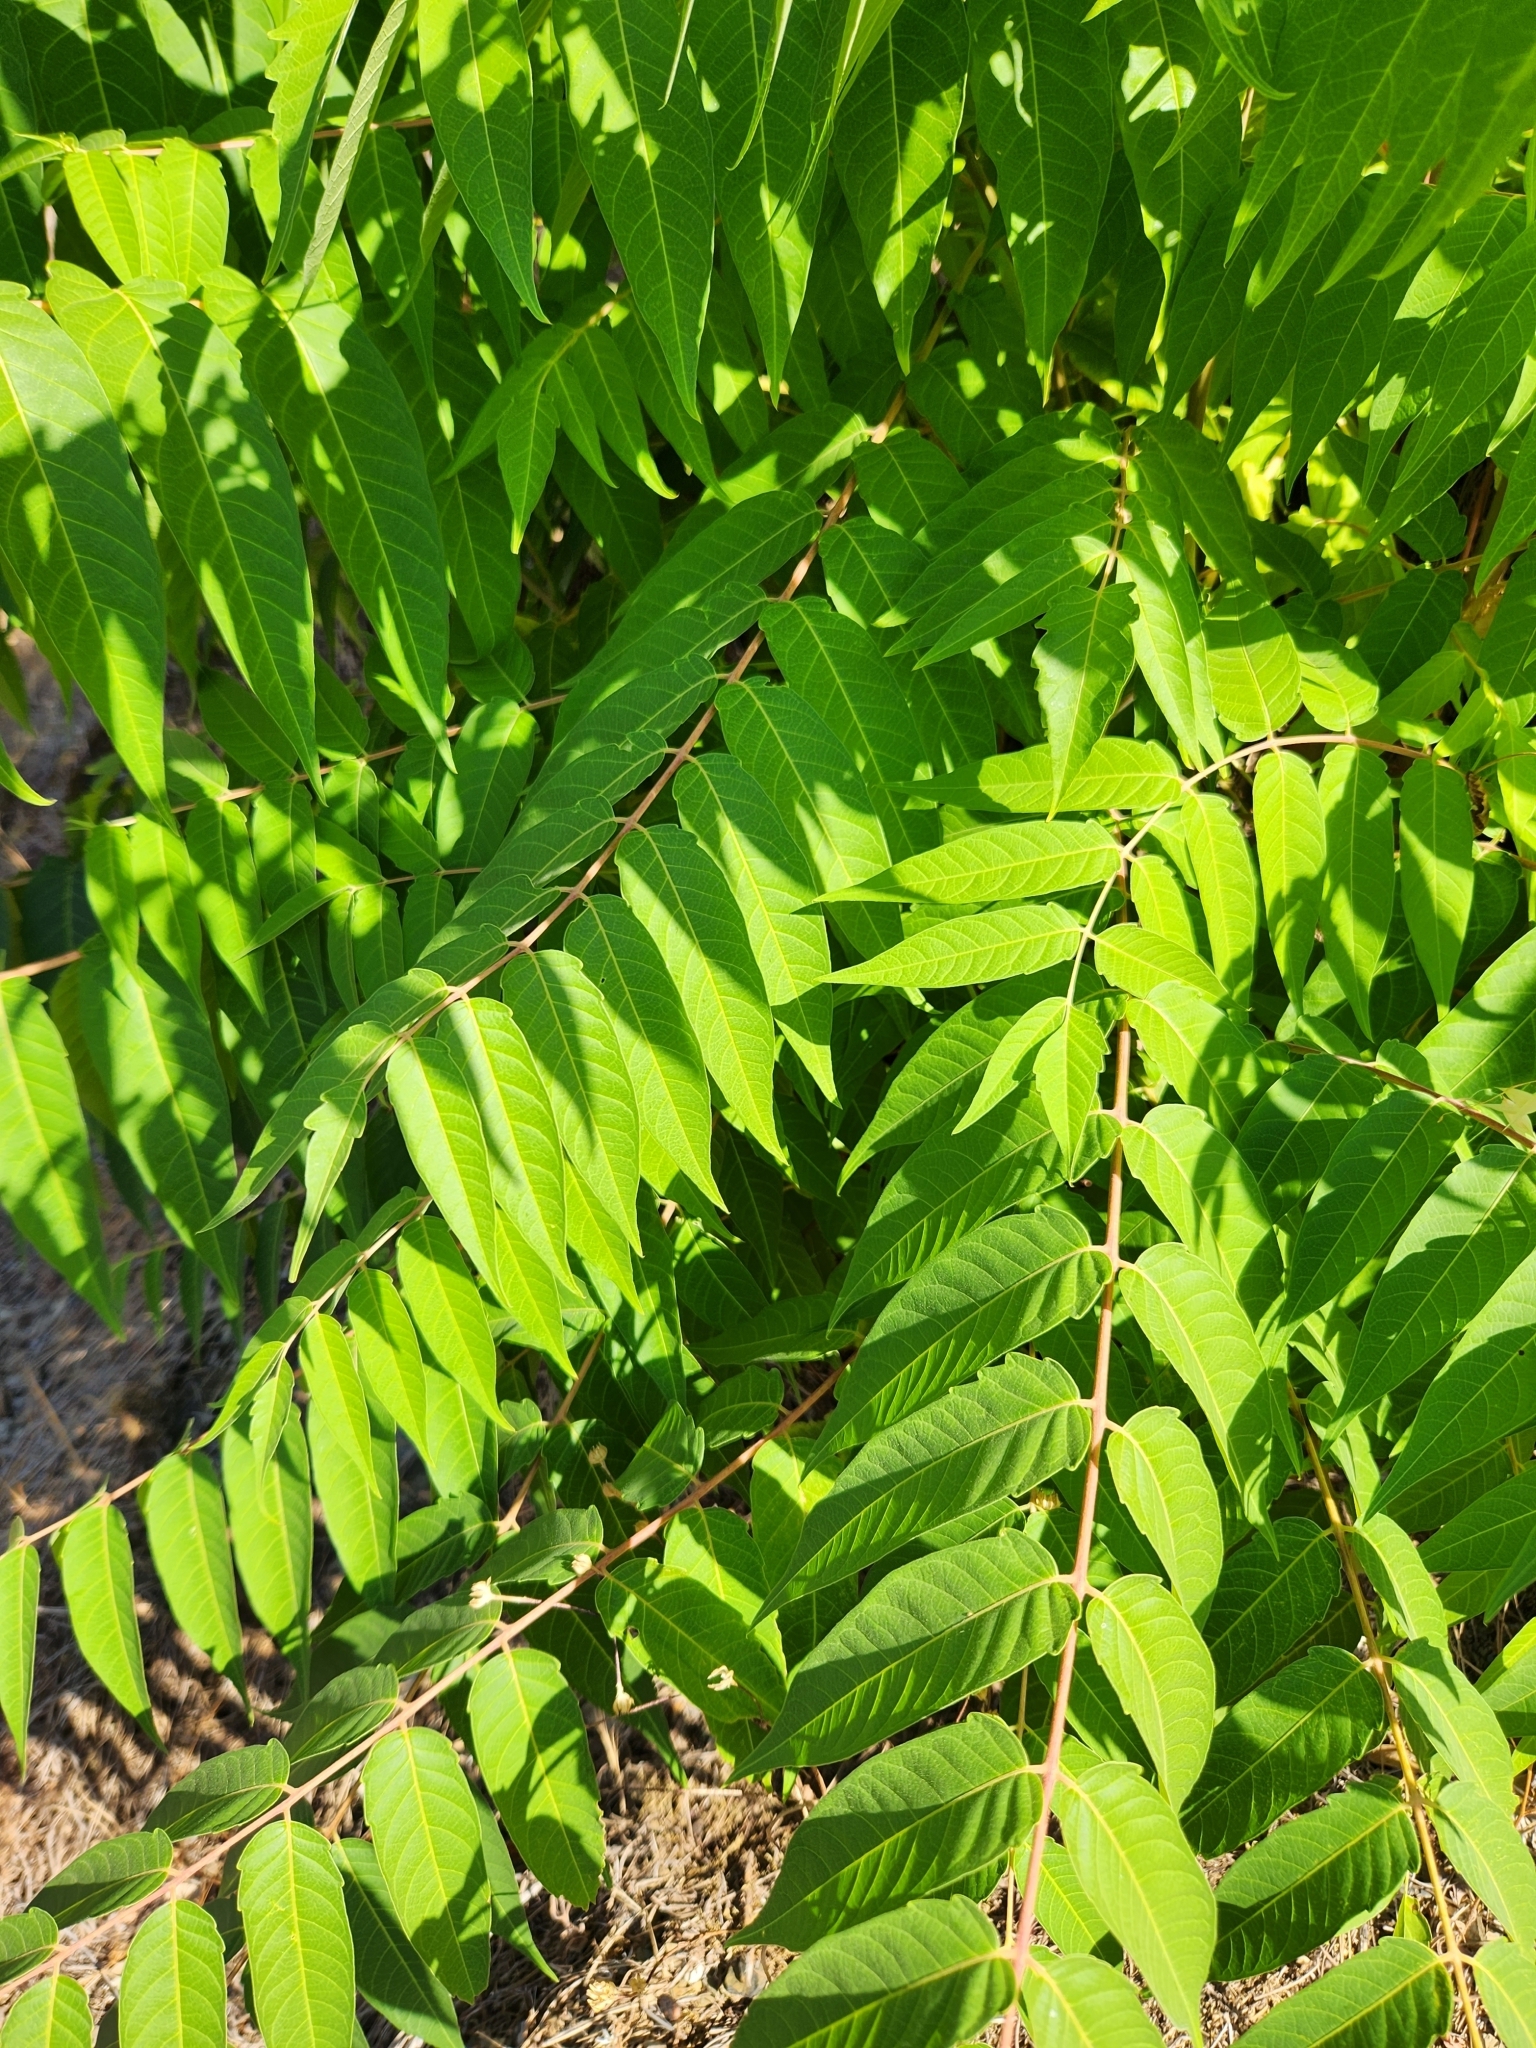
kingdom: Plantae
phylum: Tracheophyta
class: Magnoliopsida
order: Sapindales
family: Simaroubaceae
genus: Ailanthus
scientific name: Ailanthus altissima
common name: Tree-of-heaven
